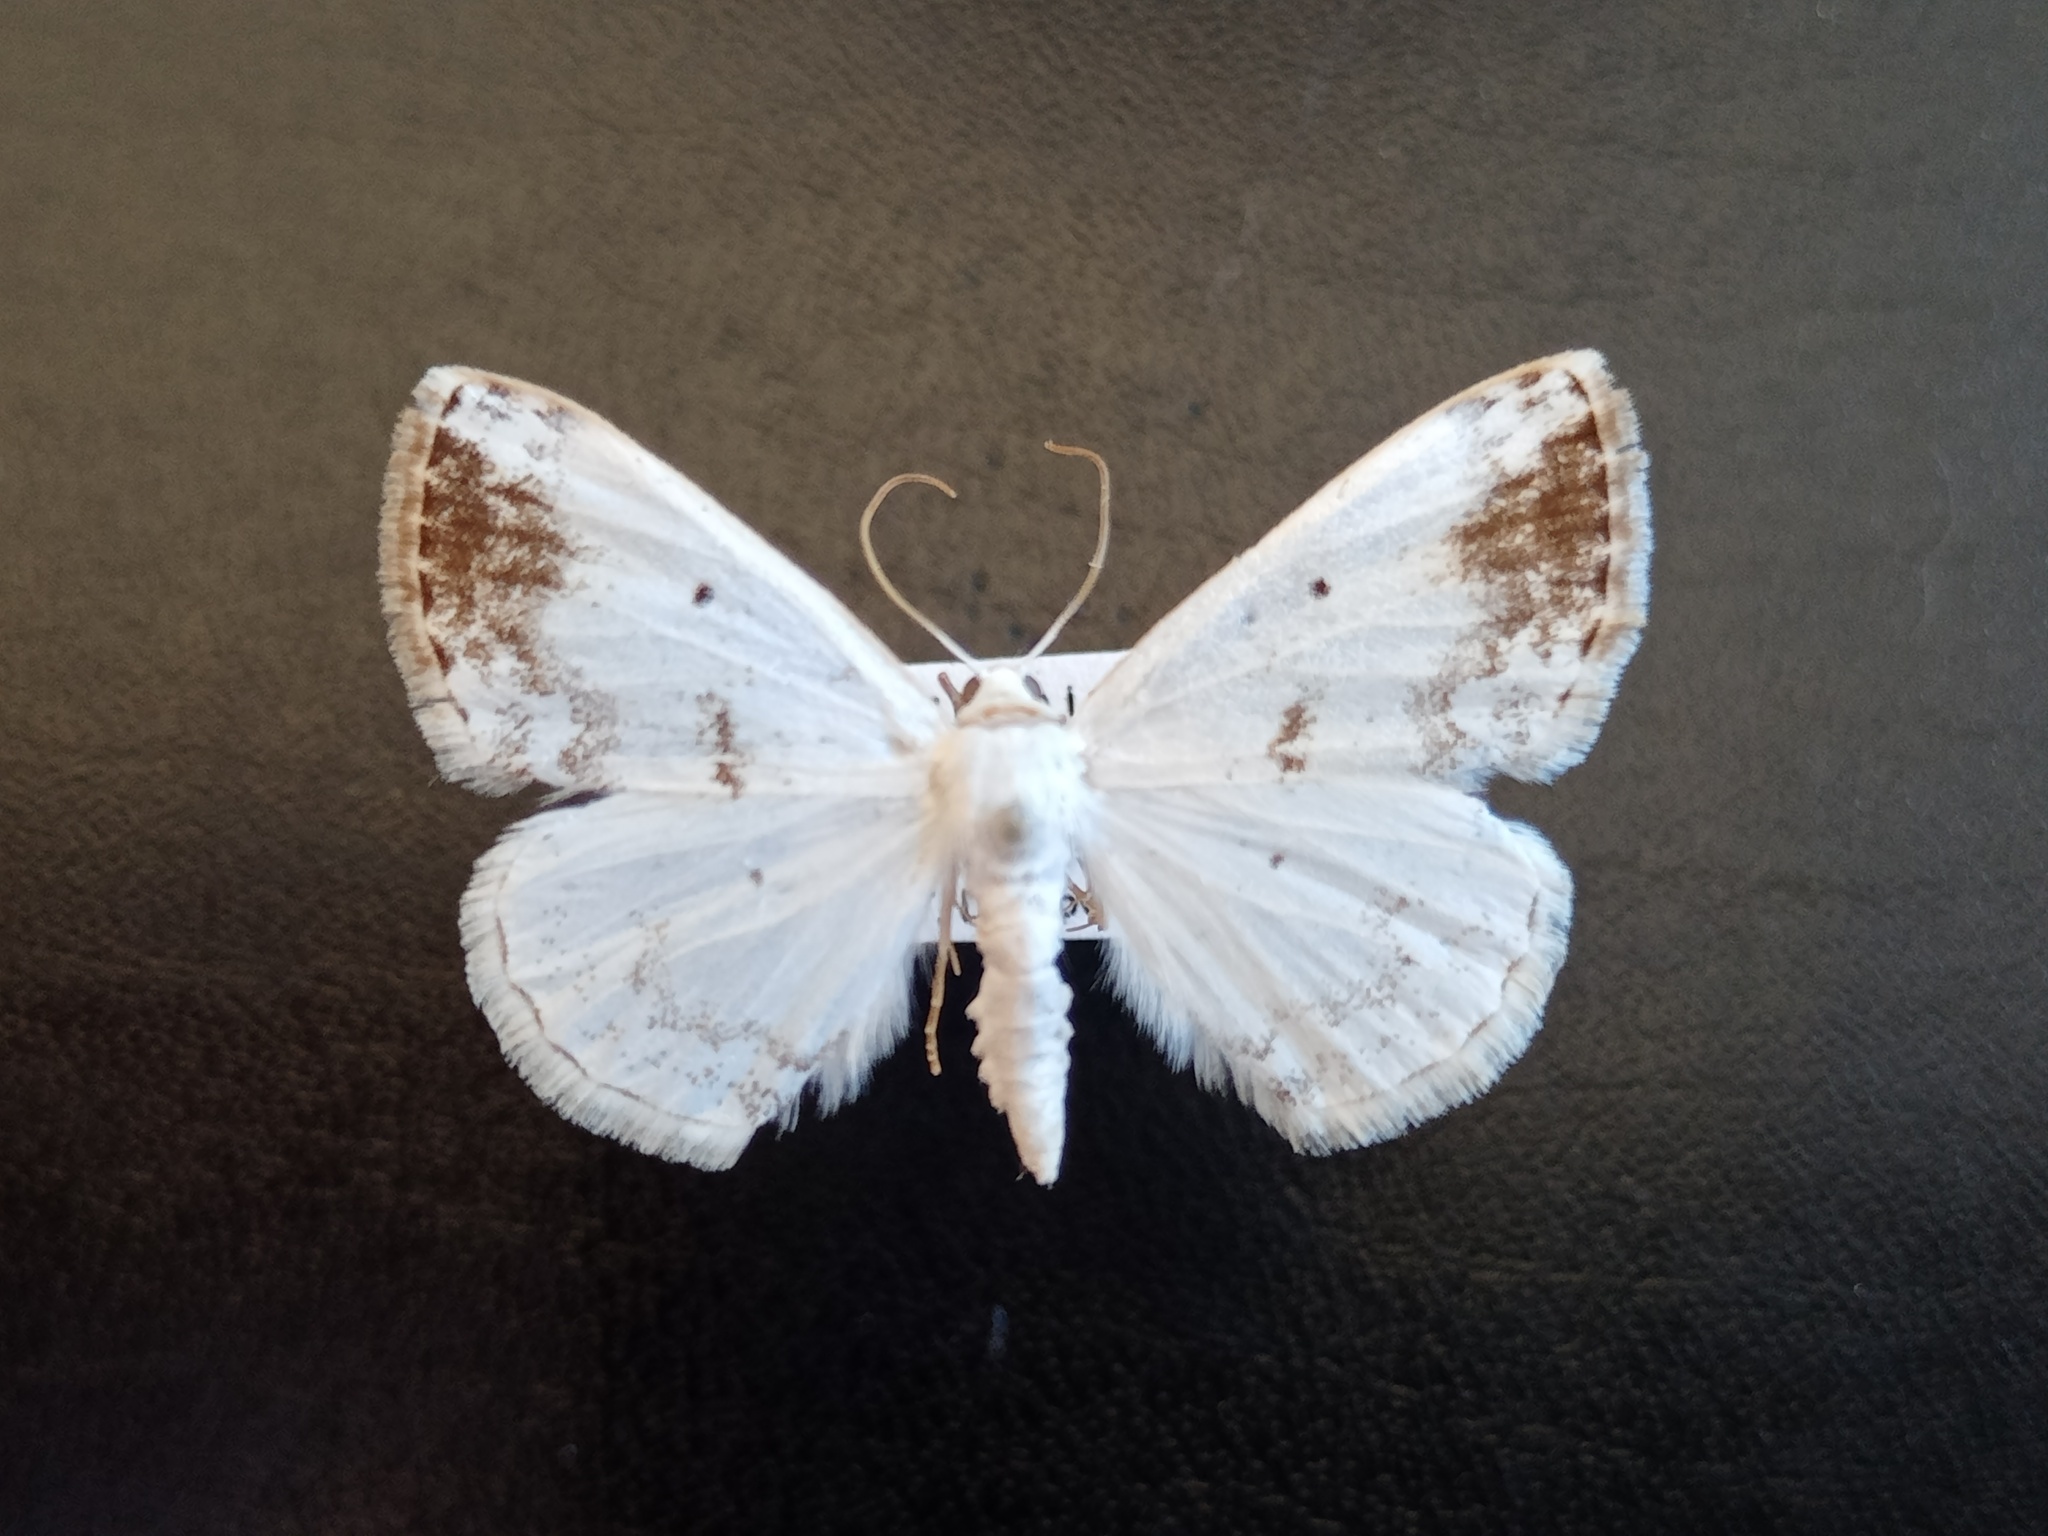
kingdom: Animalia
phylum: Arthropoda
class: Insecta
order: Lepidoptera
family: Geometridae
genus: Lomographa
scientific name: Lomographa temerata
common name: Clouded silver
